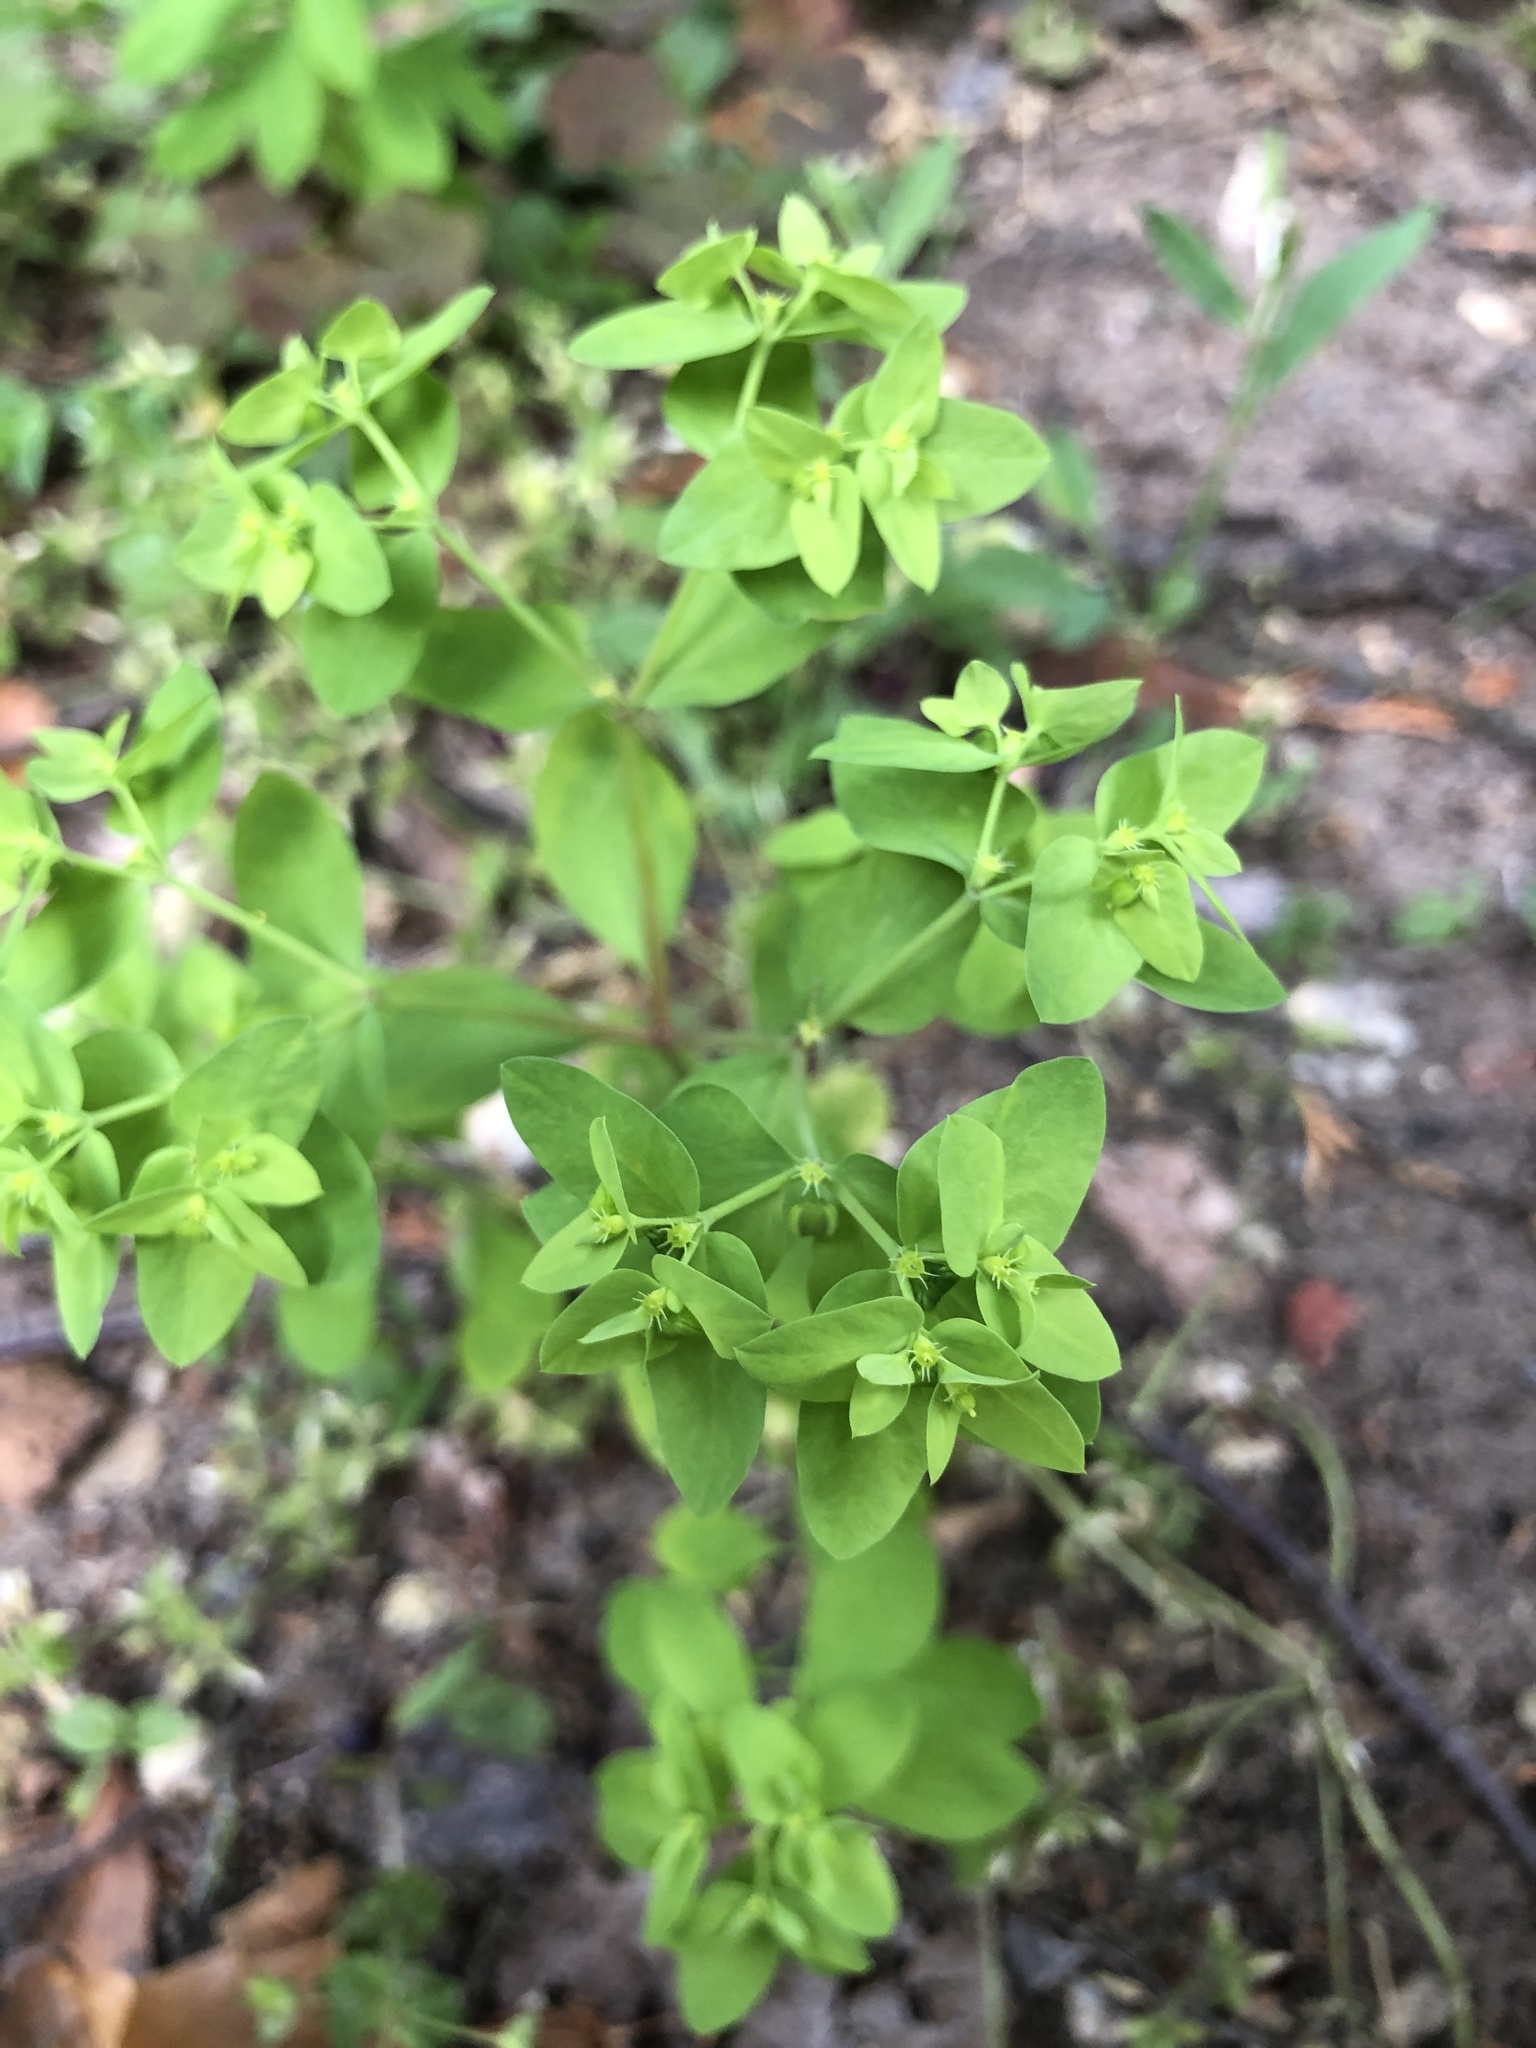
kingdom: Plantae
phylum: Tracheophyta
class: Magnoliopsida
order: Malpighiales
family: Euphorbiaceae
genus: Euphorbia
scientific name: Euphorbia peplus
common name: Petty spurge
